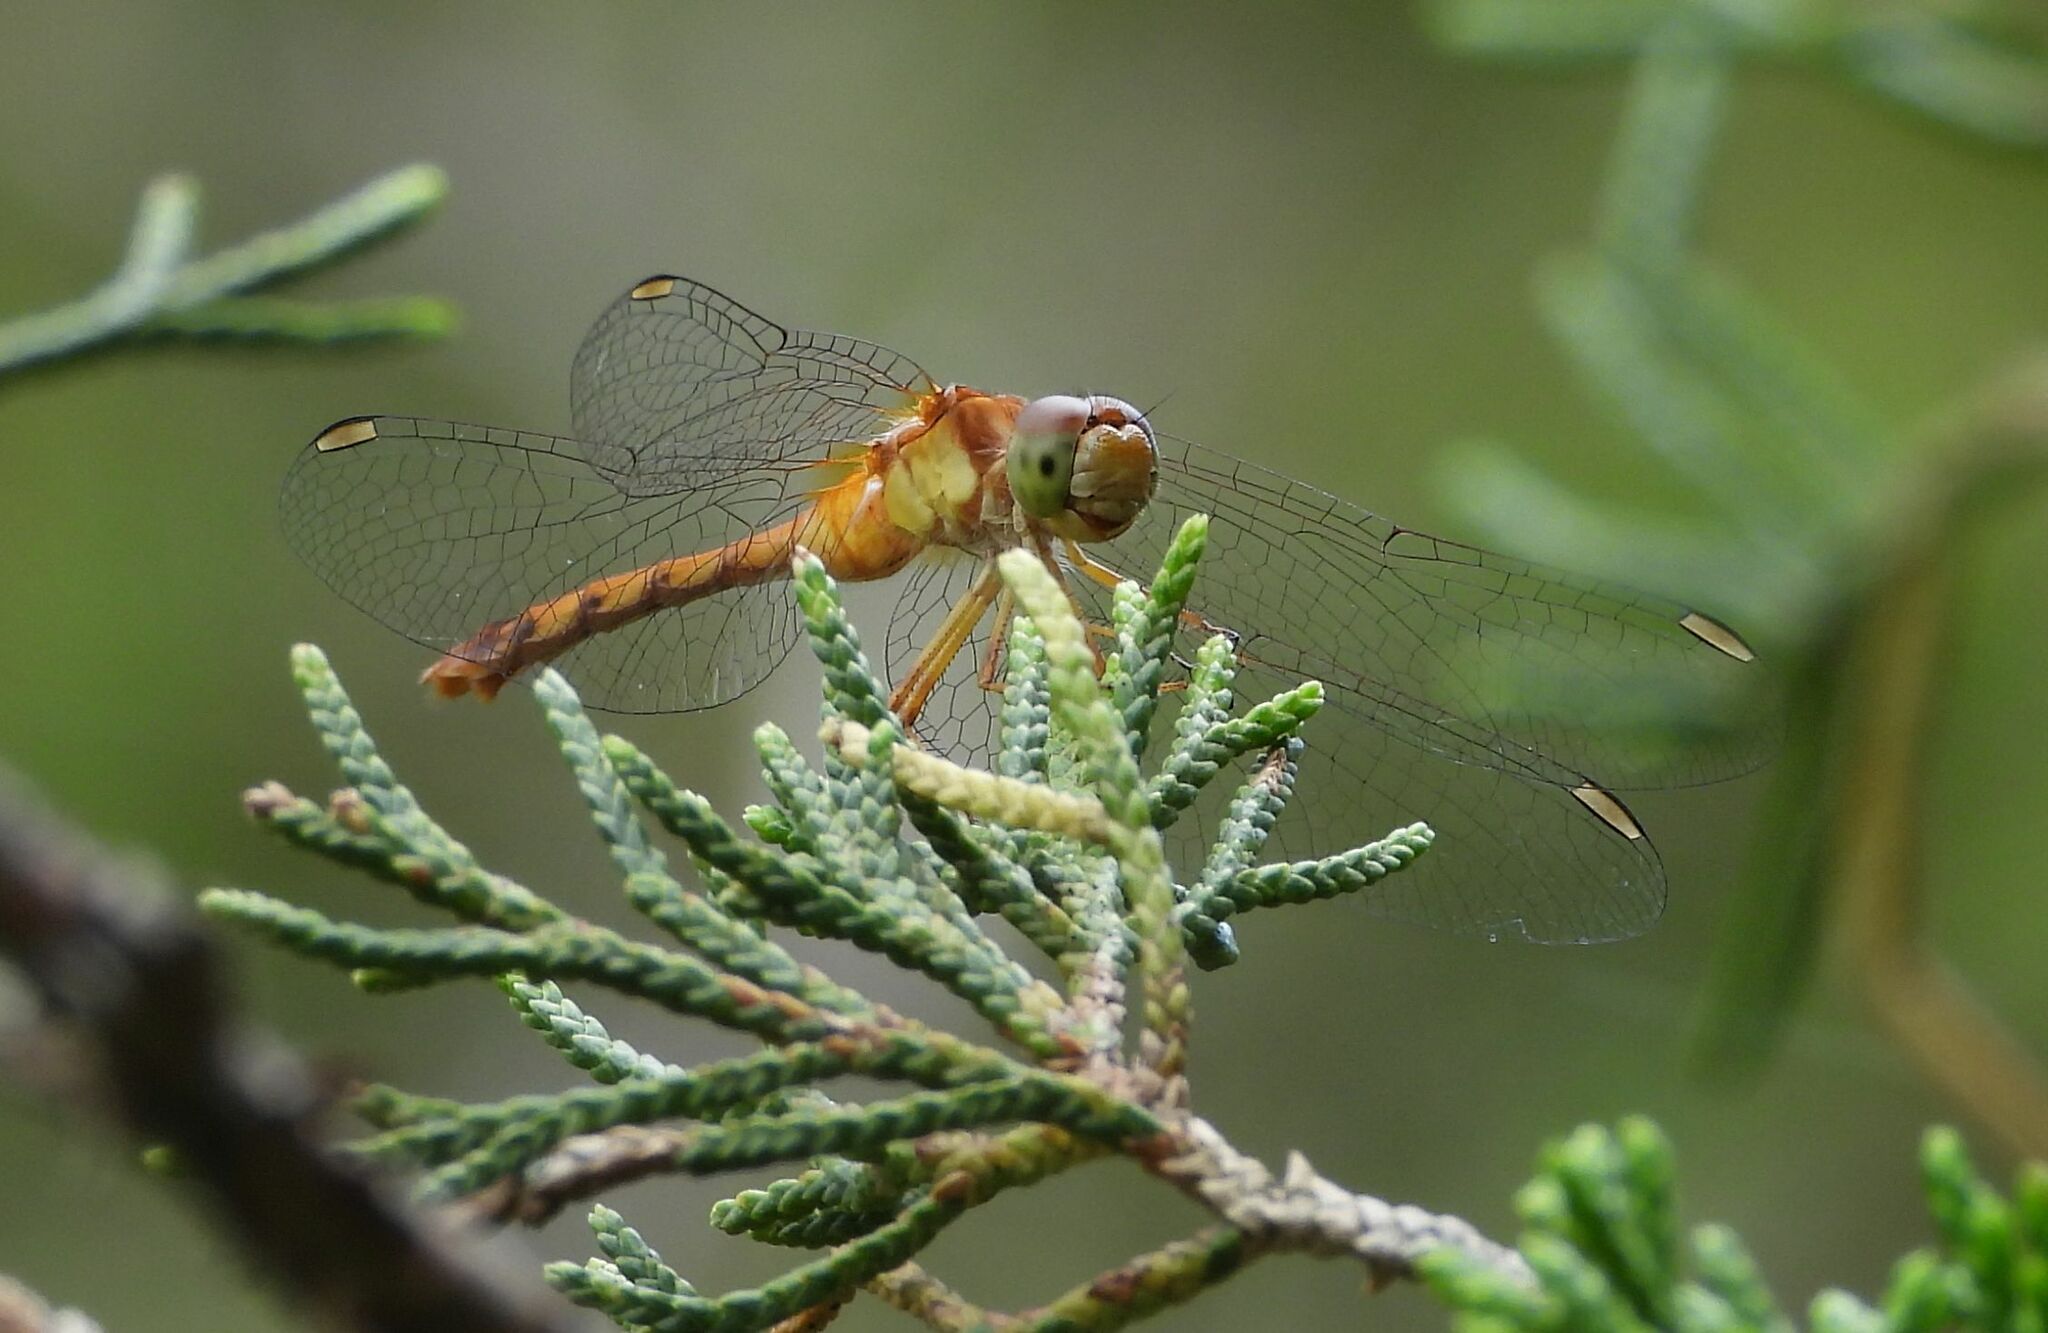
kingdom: Animalia
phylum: Arthropoda
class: Insecta
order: Odonata
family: Libellulidae
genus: Sympetrum
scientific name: Sympetrum vicinum
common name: Autumn meadowhawk
